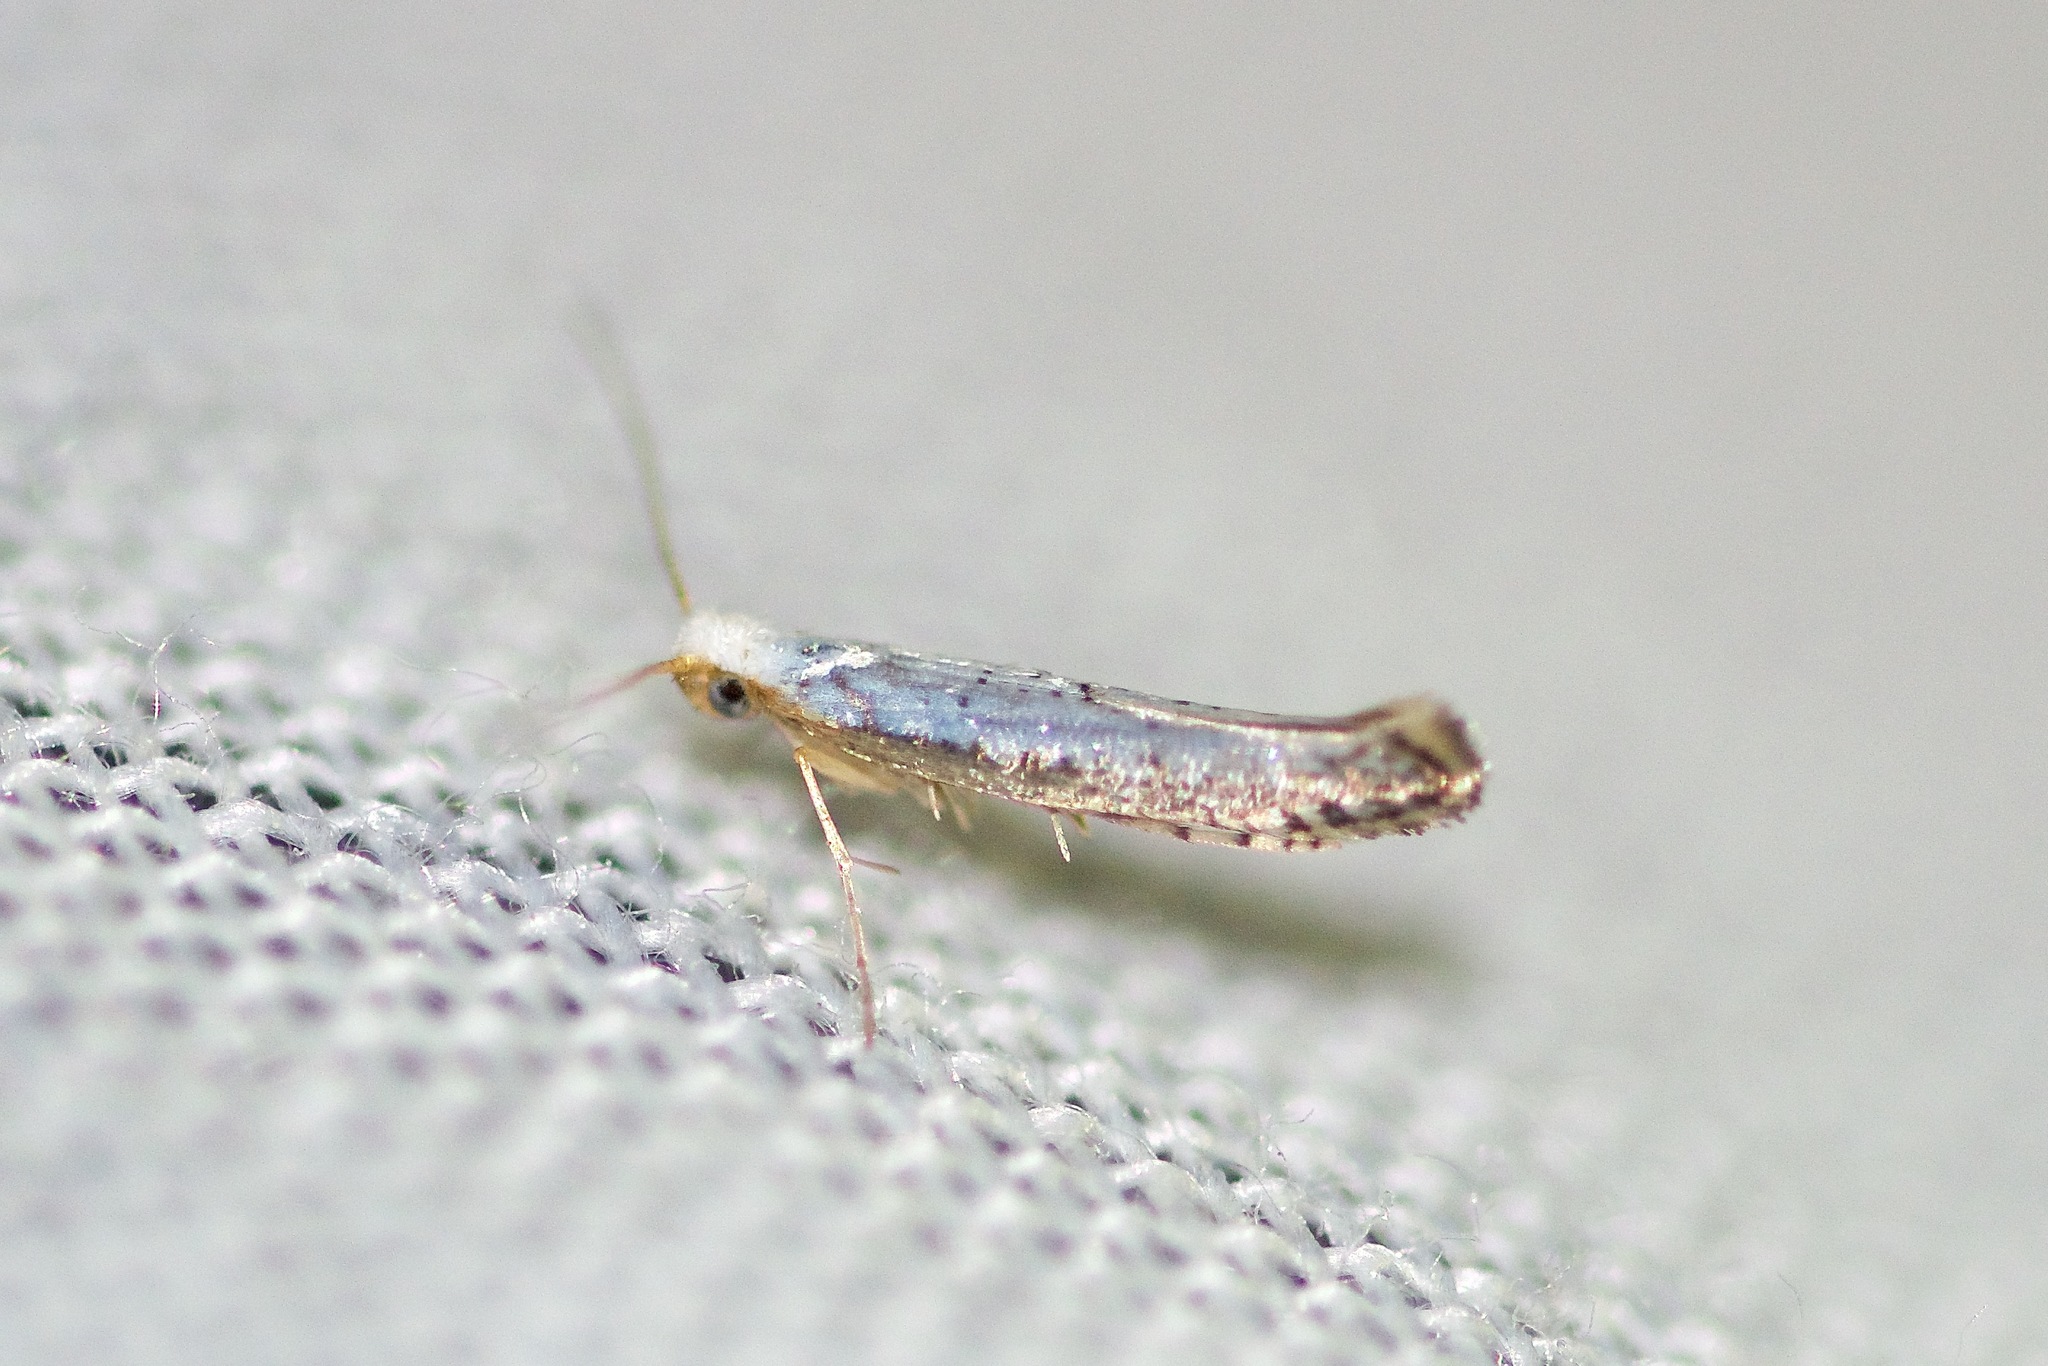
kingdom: Animalia
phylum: Arthropoda
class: Insecta
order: Lepidoptera
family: Argyresthiidae
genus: Argyresthia
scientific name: Argyresthia subreticulata
